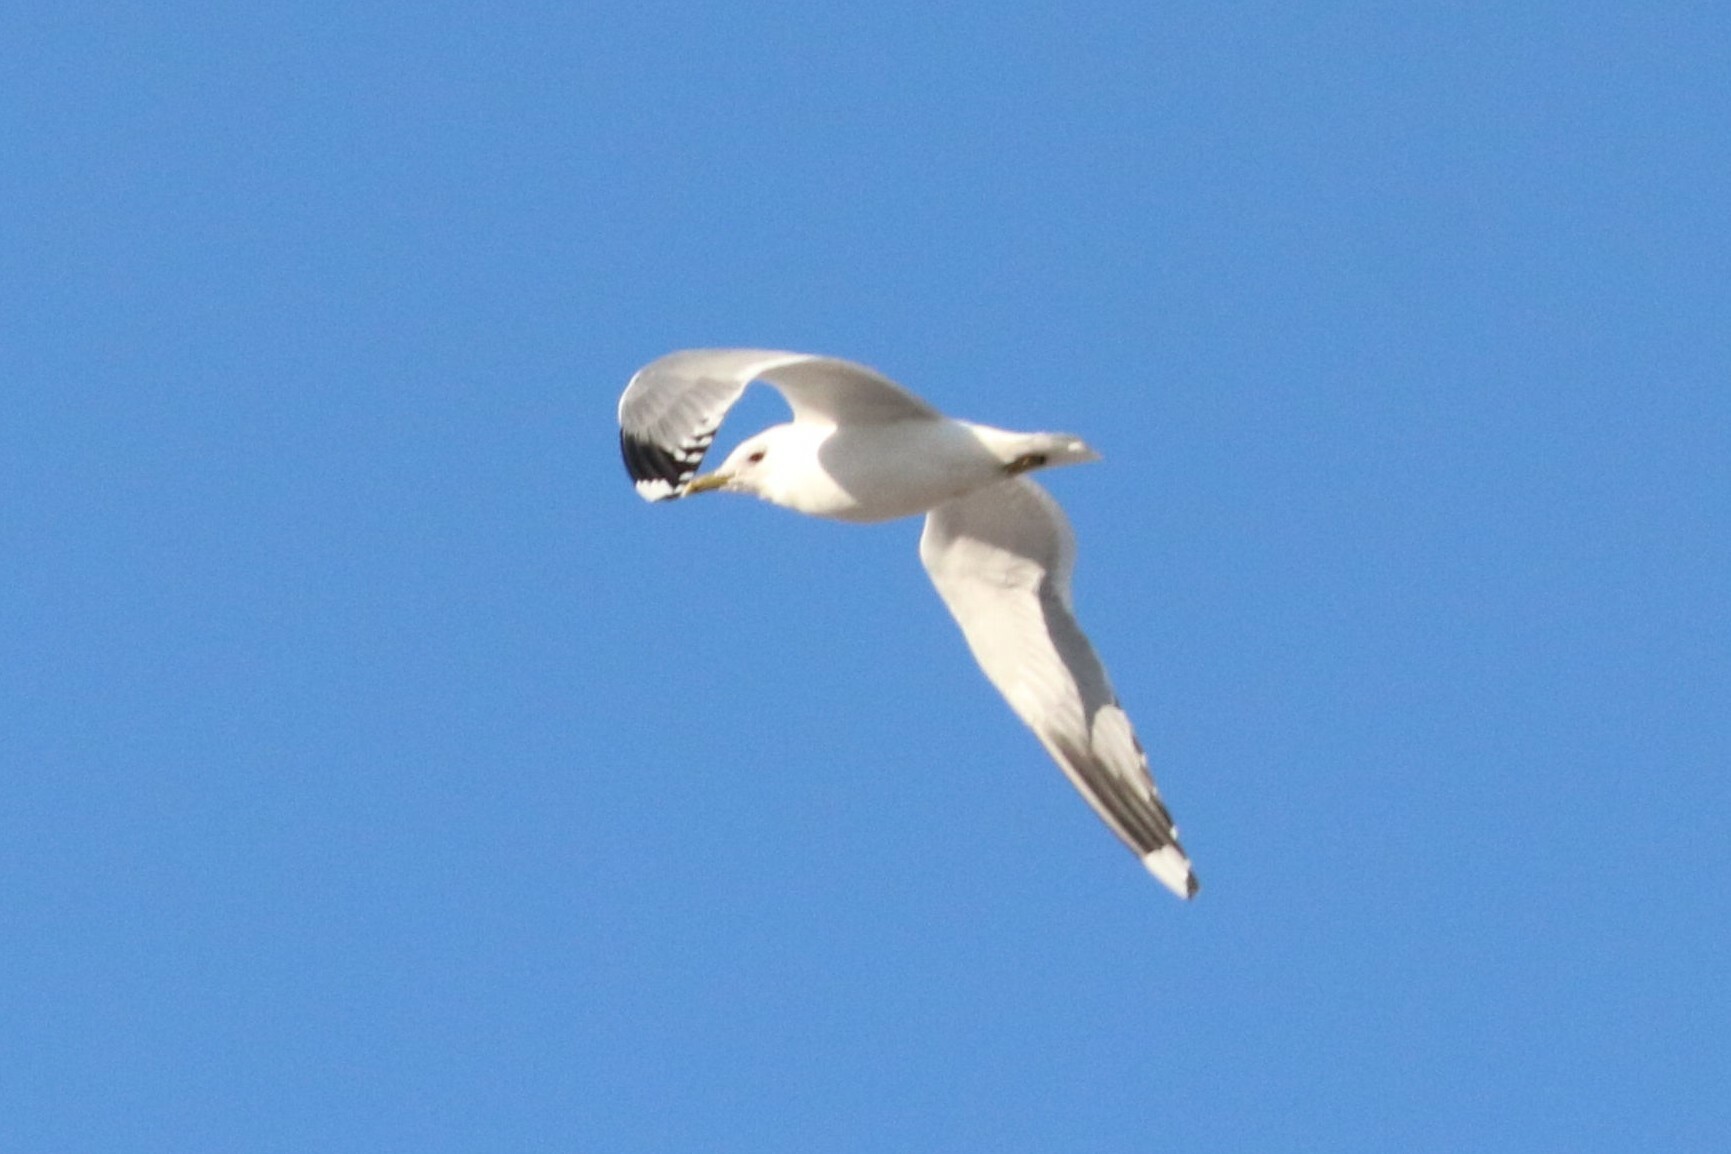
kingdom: Animalia
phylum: Chordata
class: Aves
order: Charadriiformes
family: Laridae
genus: Larus
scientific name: Larus canus
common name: Mew gull
